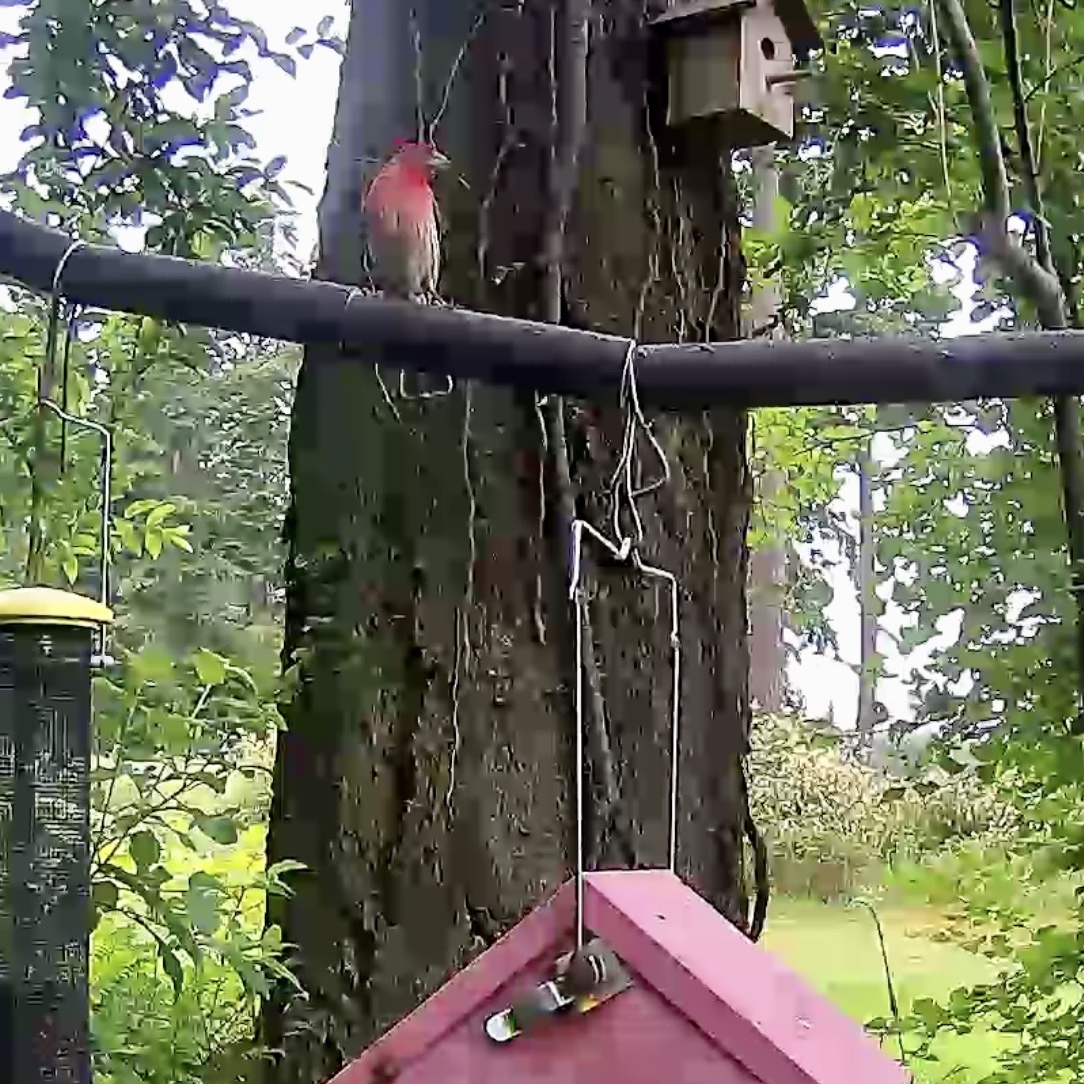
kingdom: Animalia
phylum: Chordata
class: Aves
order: Passeriformes
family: Fringillidae
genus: Haemorhous
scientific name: Haemorhous mexicanus
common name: House finch
